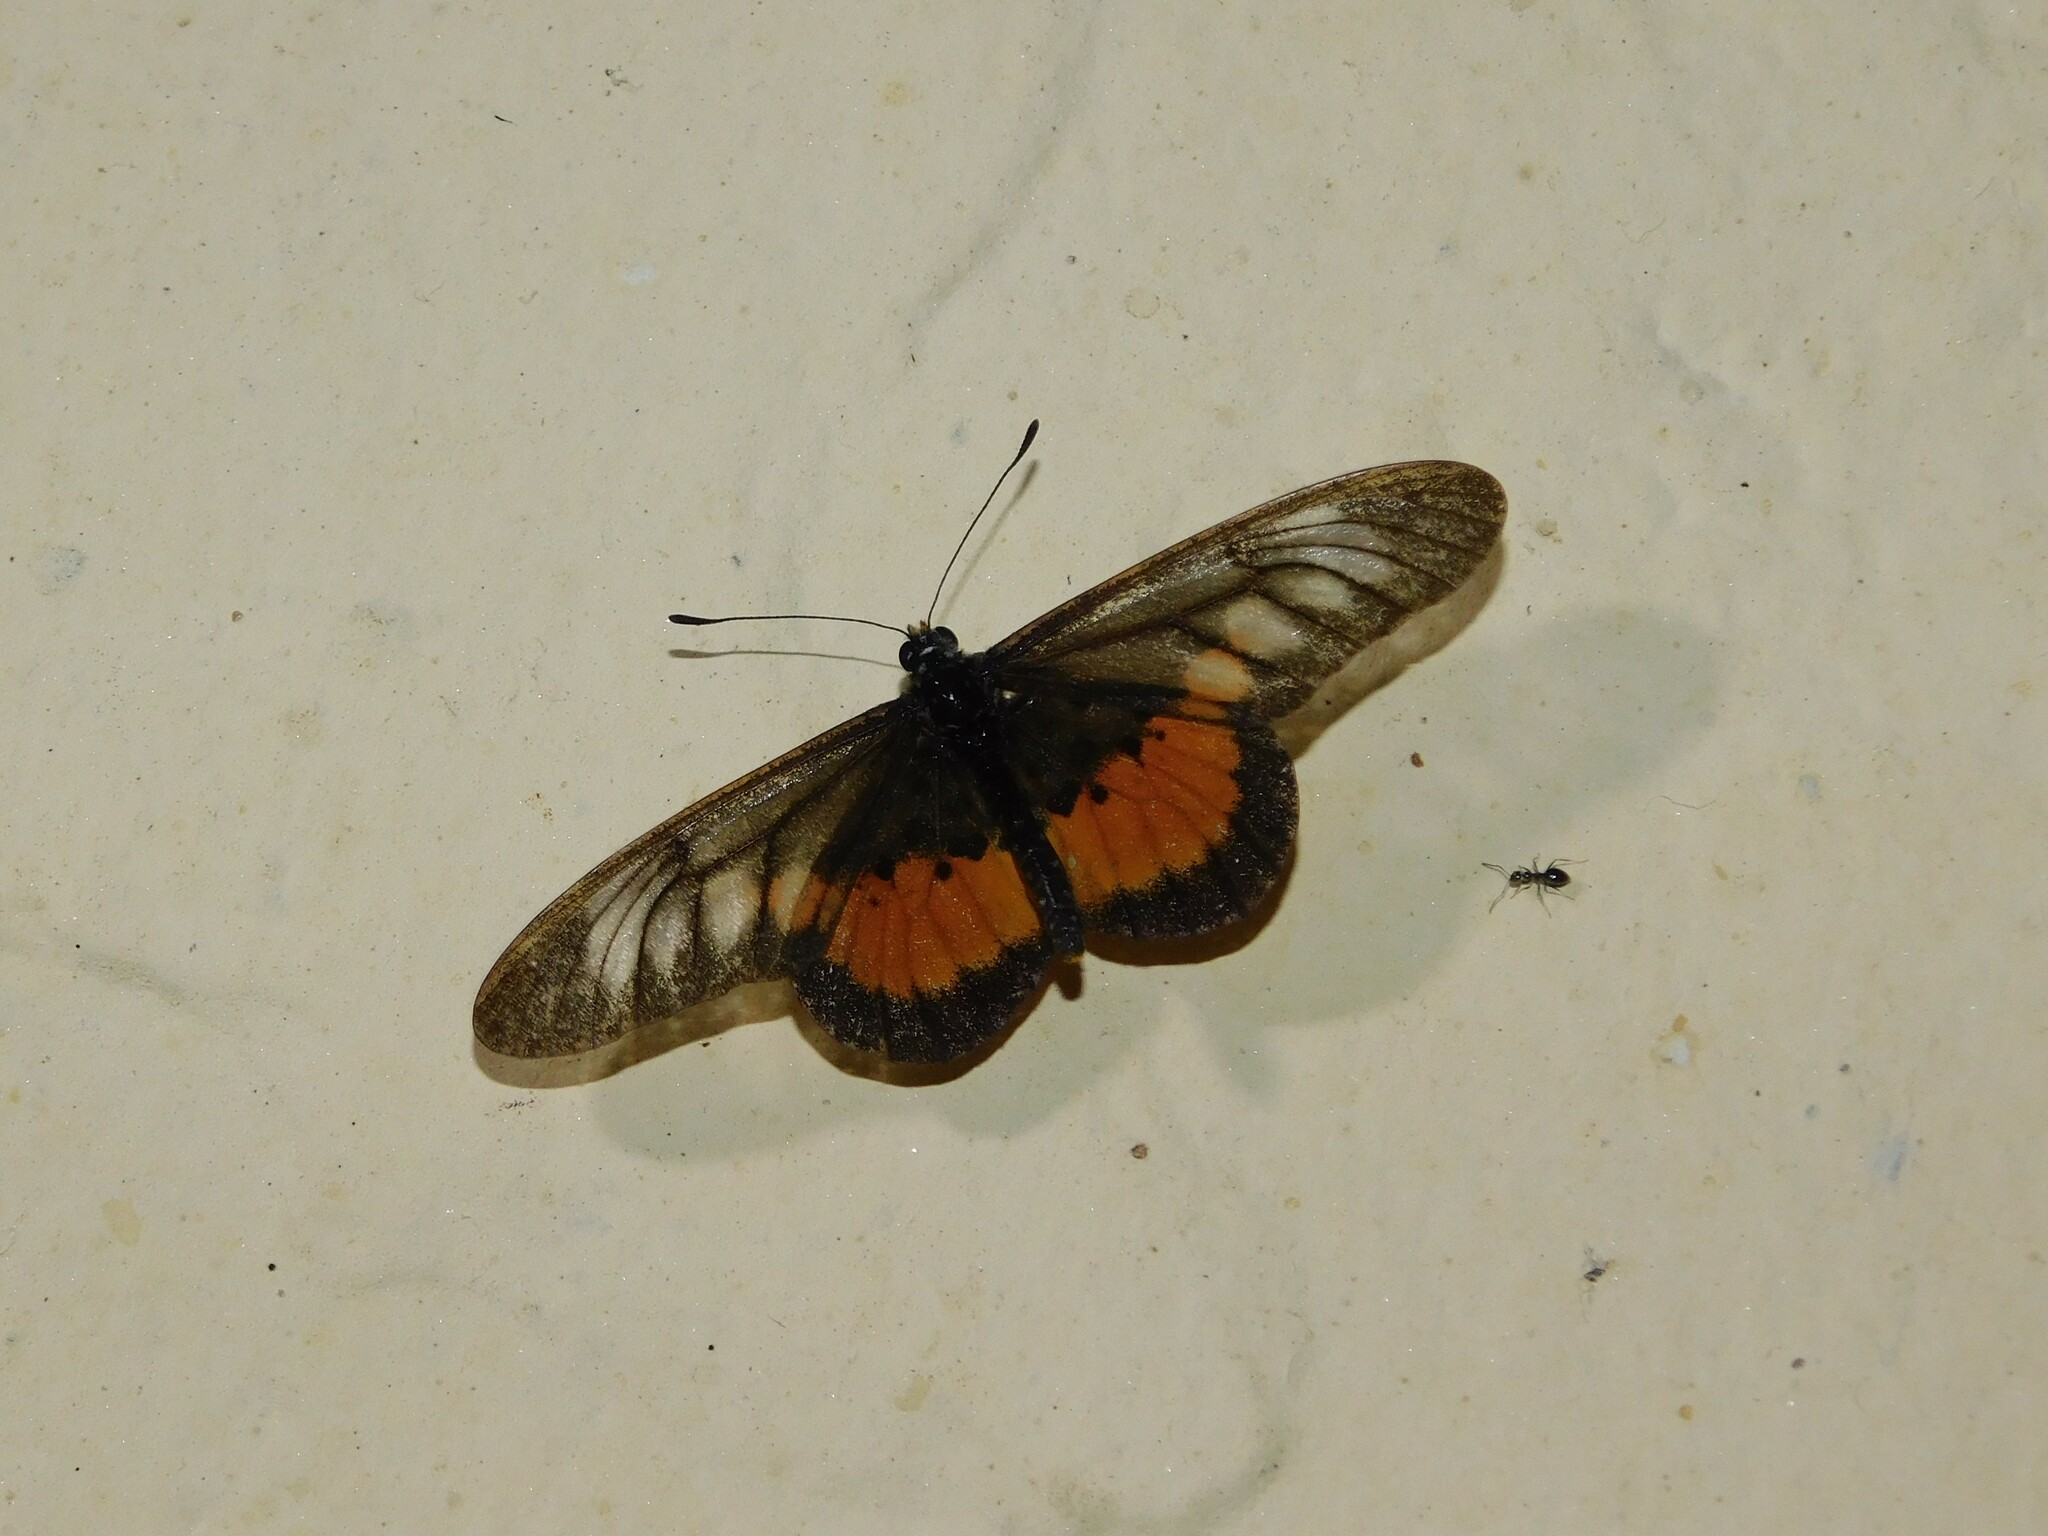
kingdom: Animalia
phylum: Arthropoda
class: Insecta
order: Lepidoptera
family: Nymphalidae
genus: Acraea
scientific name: Acraea
